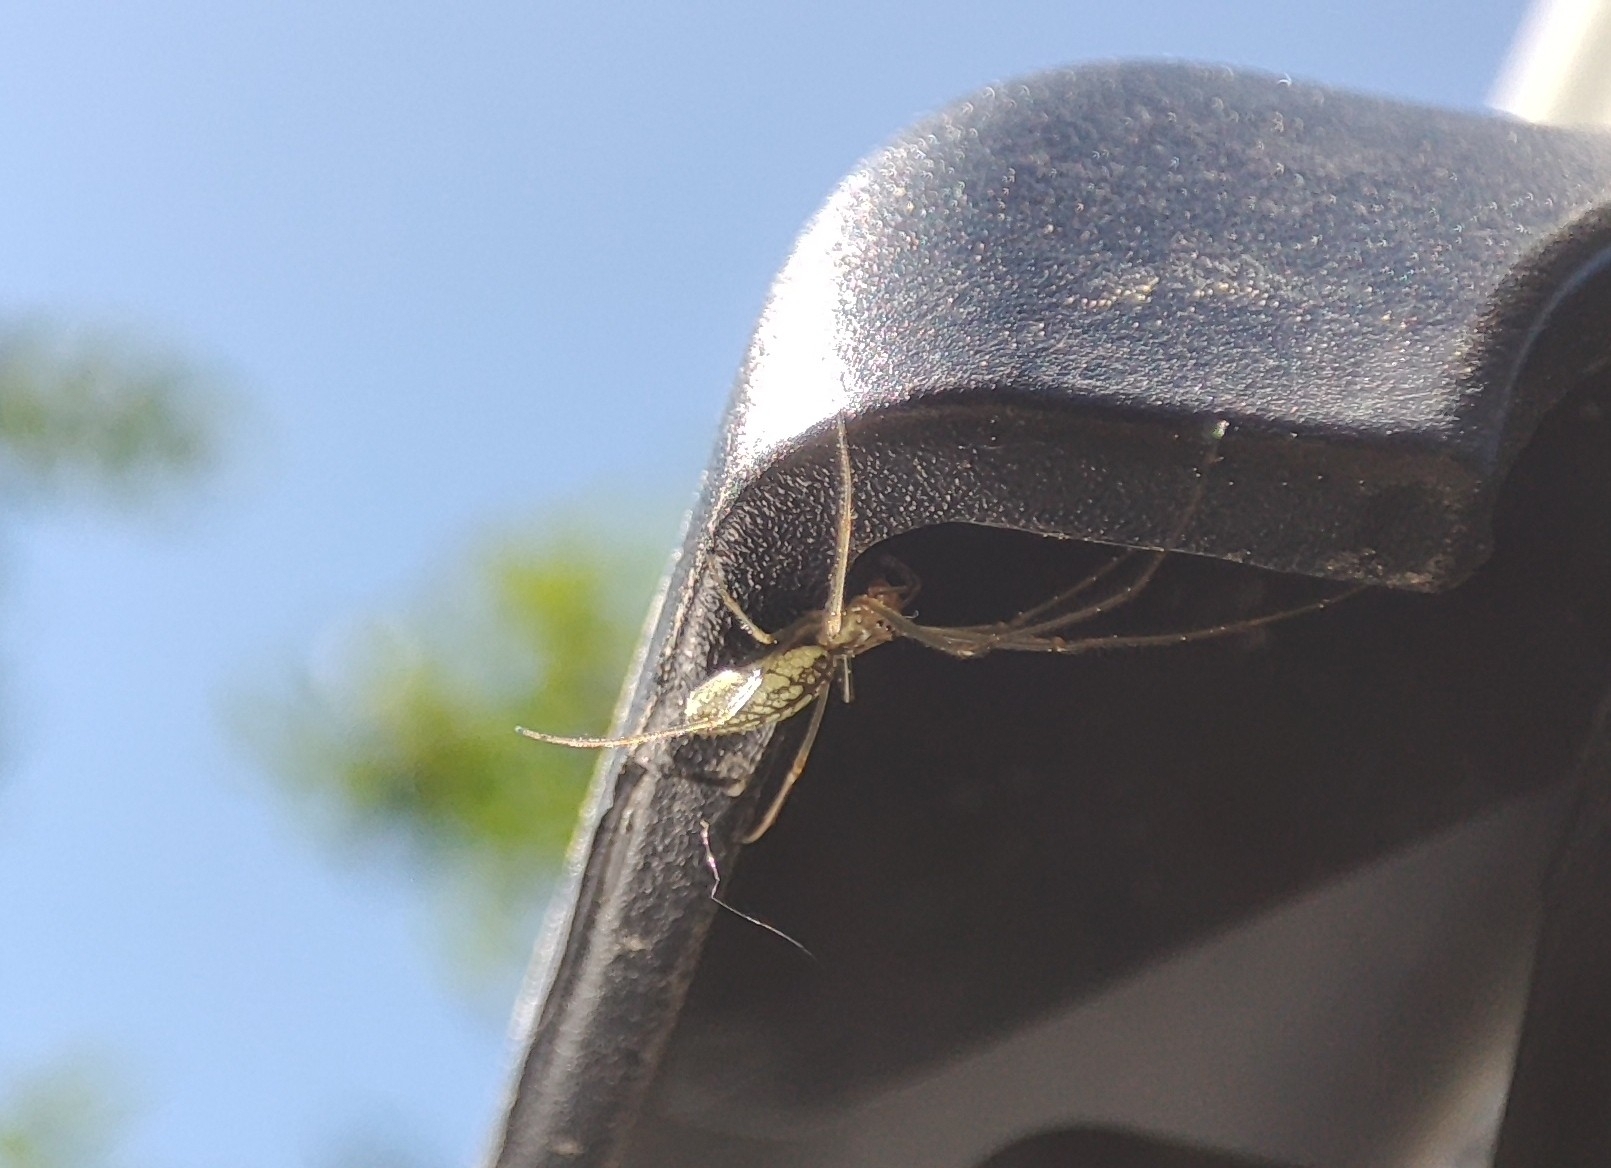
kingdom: Animalia
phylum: Arthropoda
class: Arachnida
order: Araneae
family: Tetragnathidae
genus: Tetragnatha
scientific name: Tetragnatha extensa
